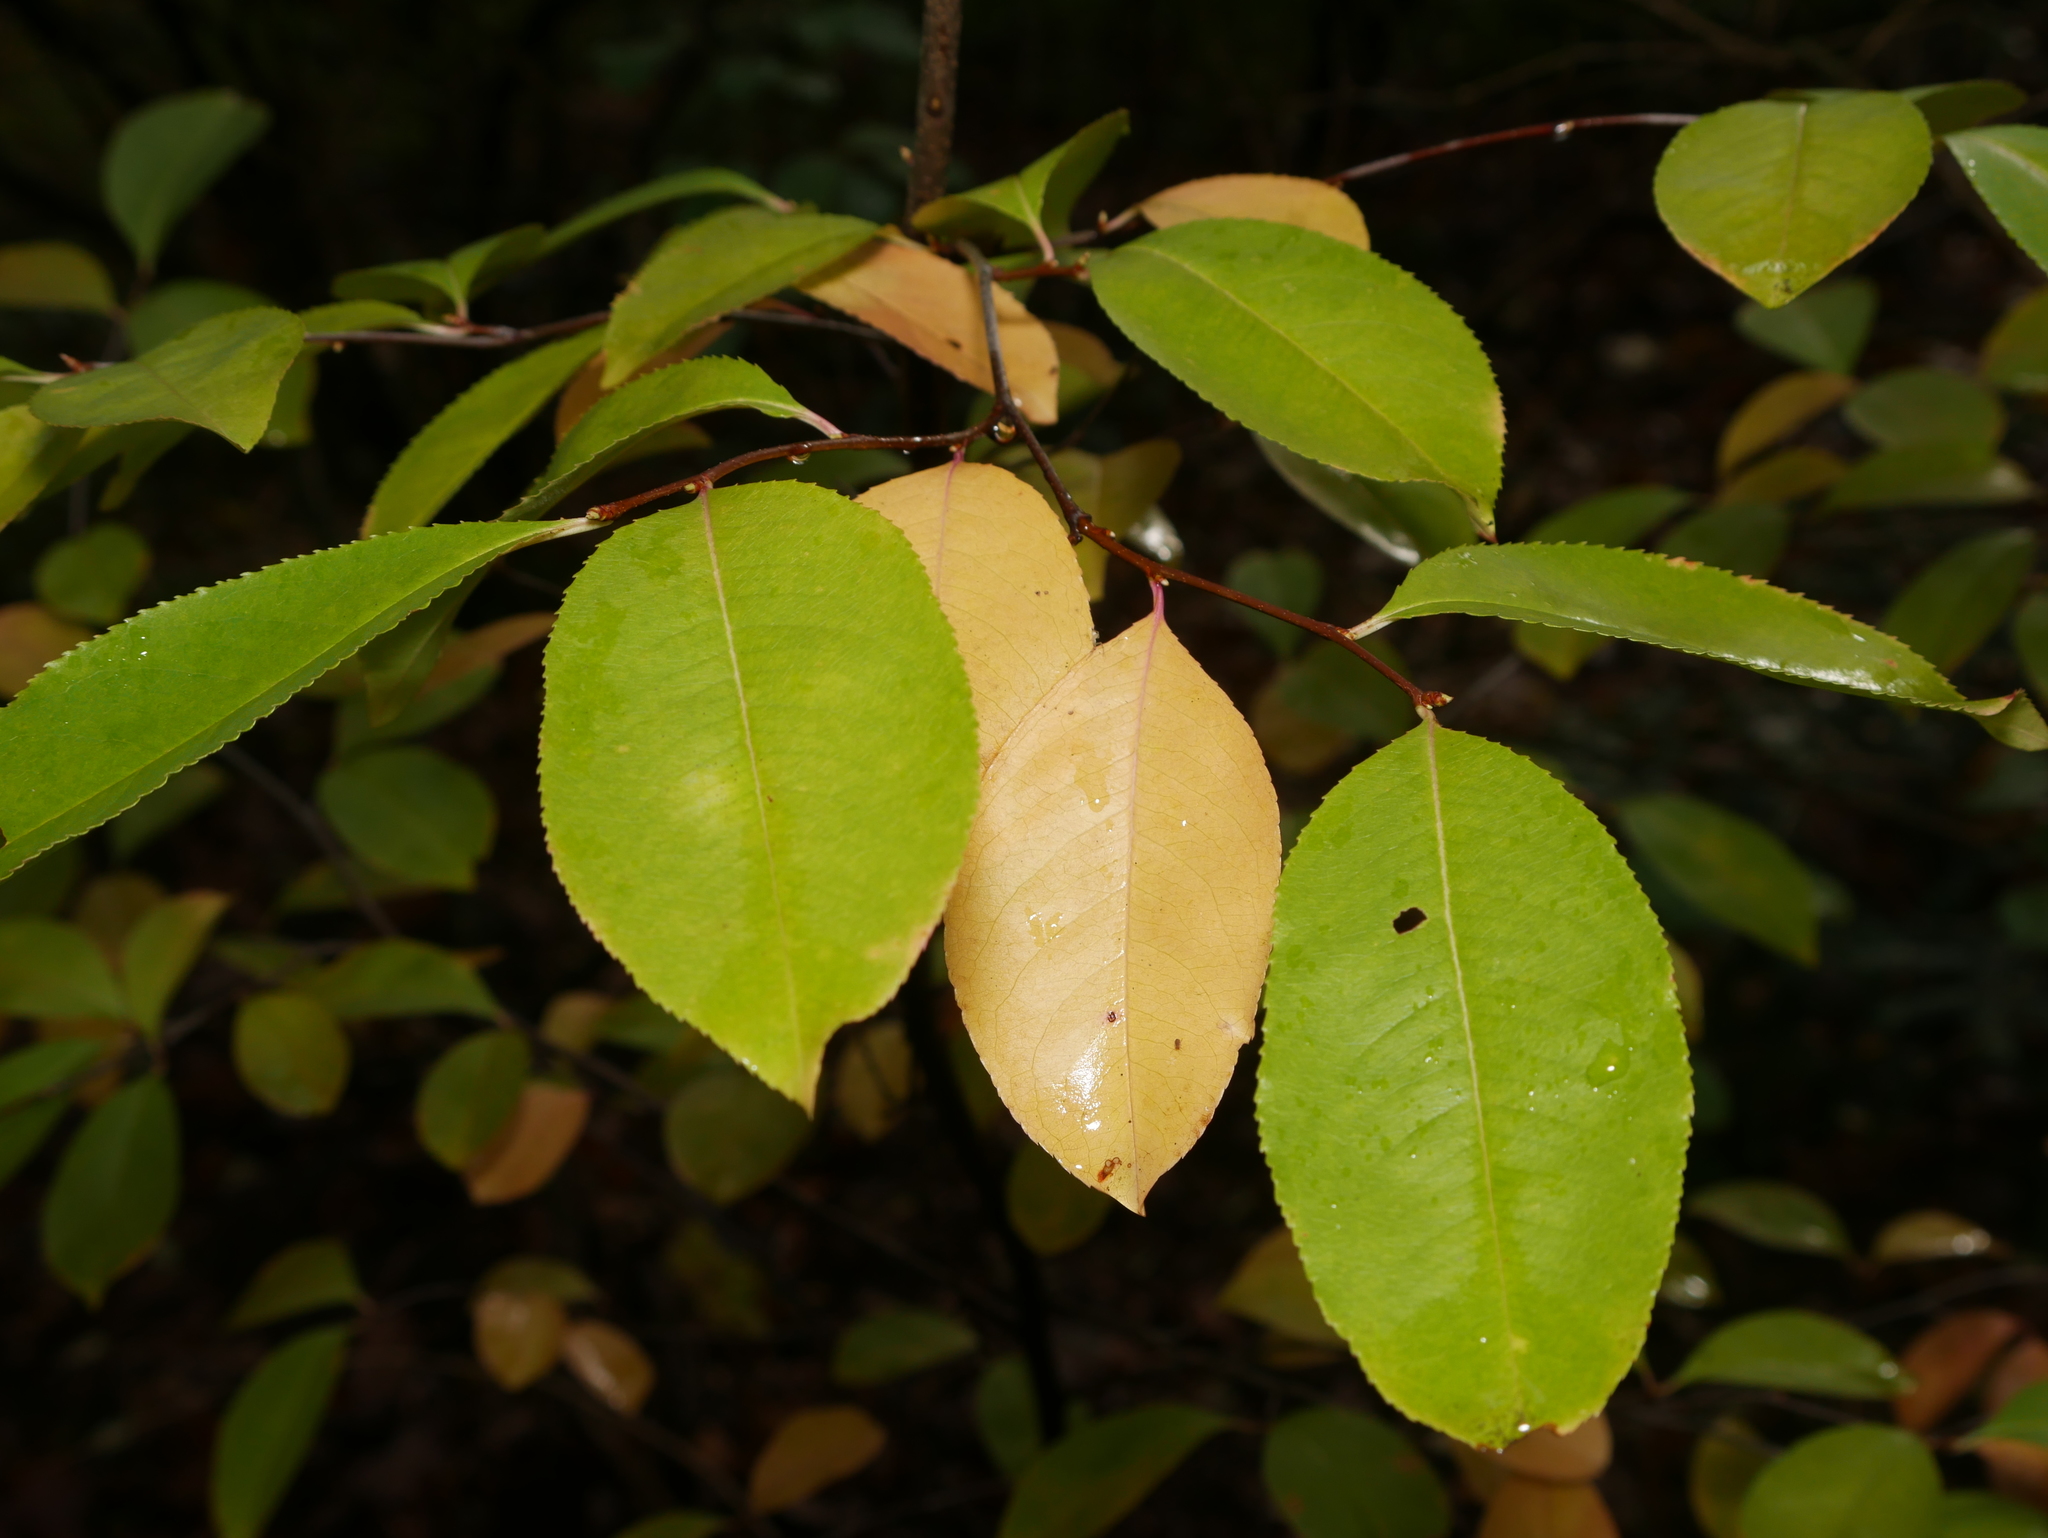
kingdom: Plantae
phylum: Tracheophyta
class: Magnoliopsida
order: Rosales
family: Rosaceae
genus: Prunus
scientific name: Prunus serotina
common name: Black cherry
